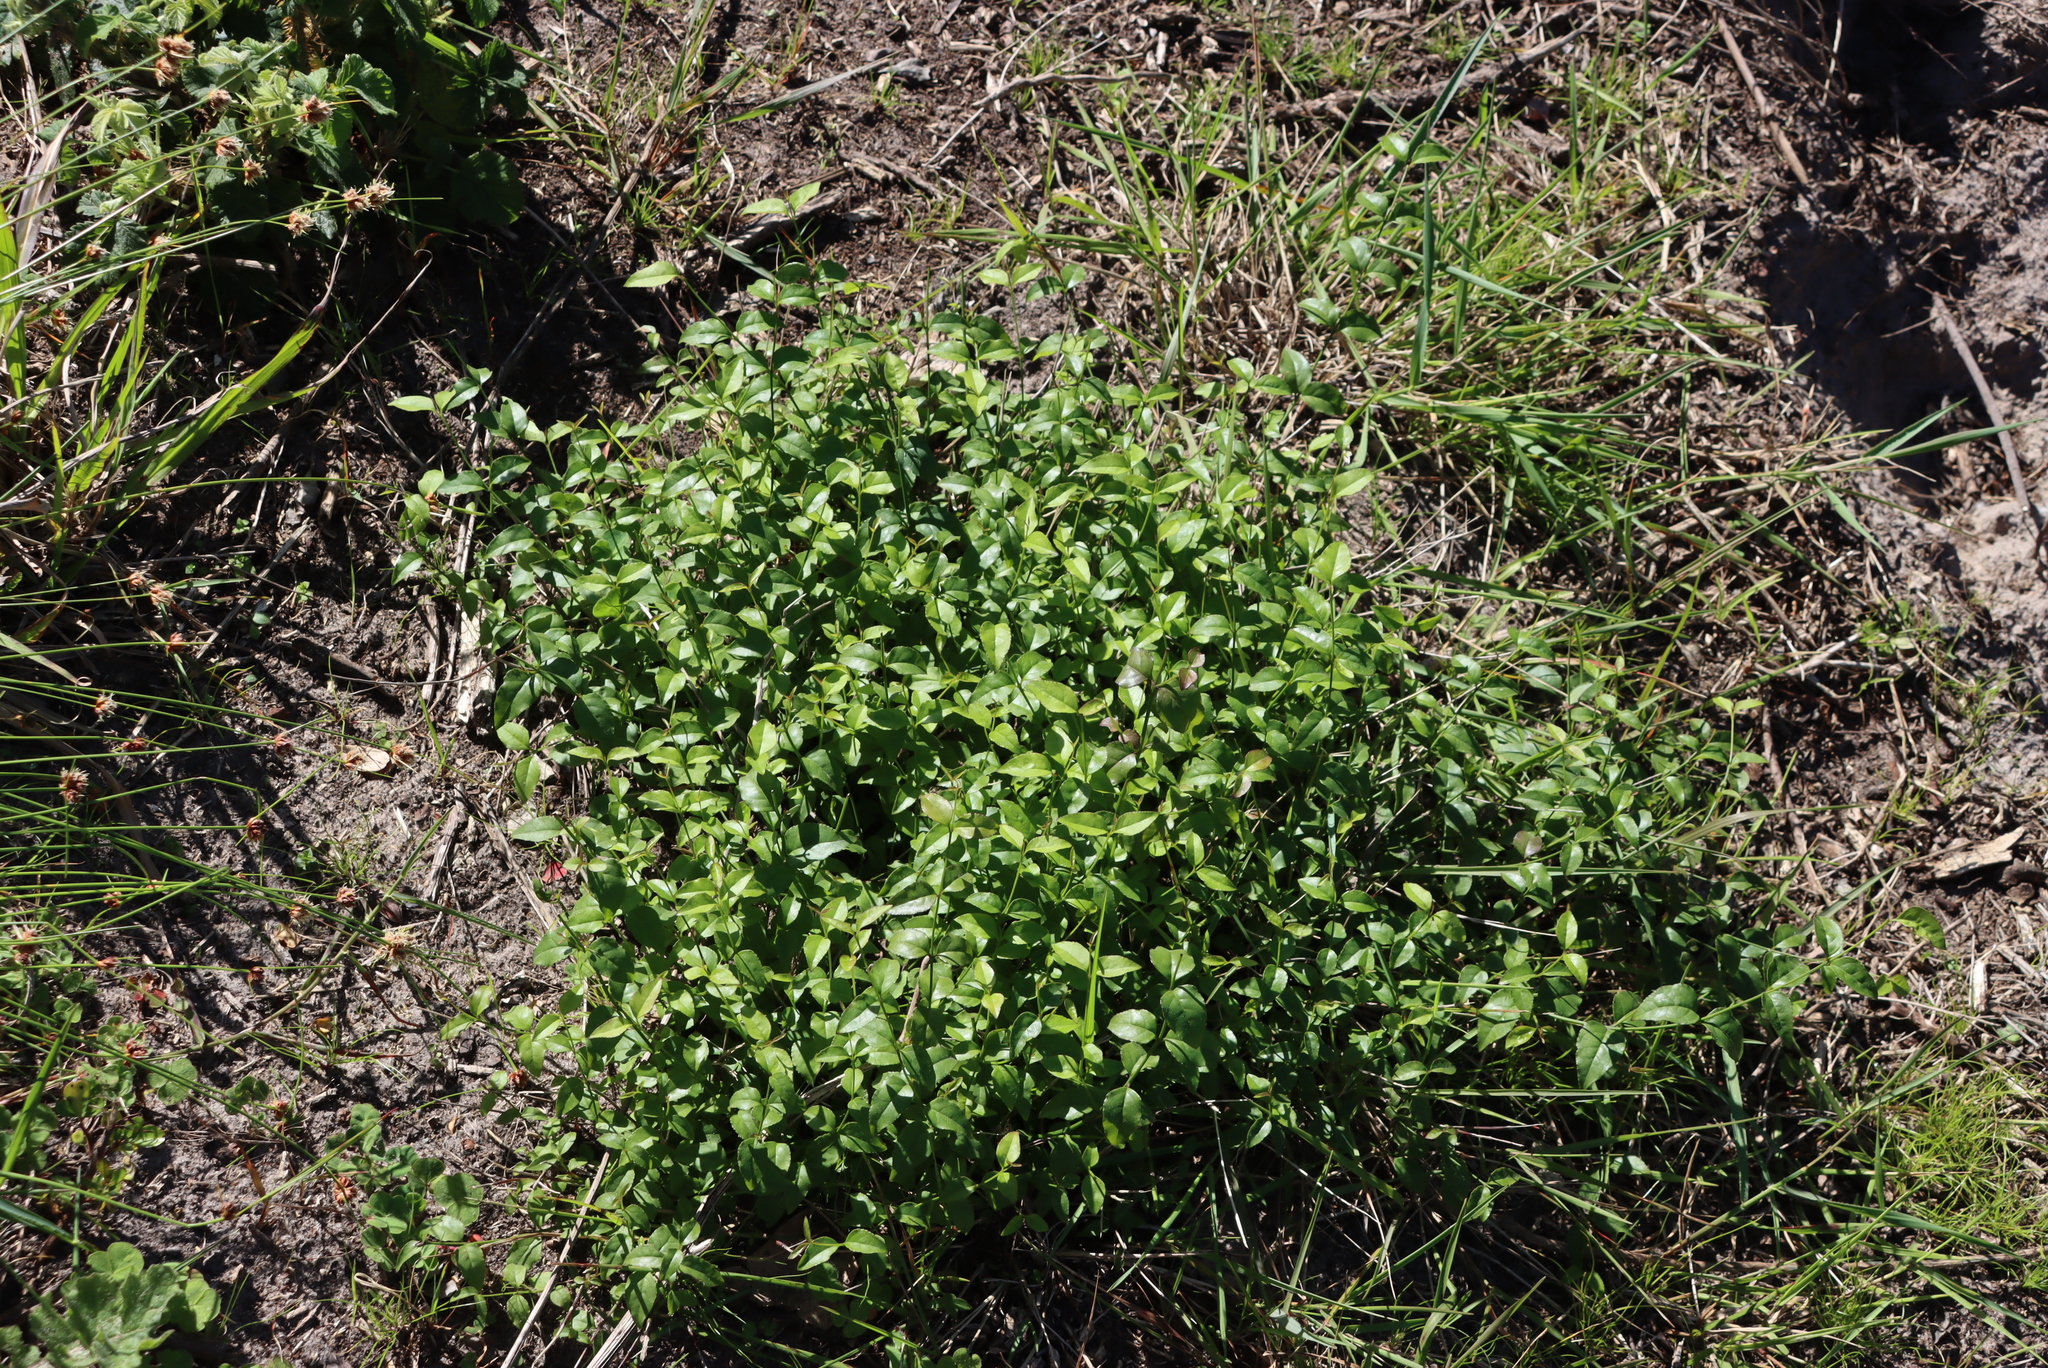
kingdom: Plantae
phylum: Tracheophyta
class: Magnoliopsida
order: Lamiales
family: Stilbaceae
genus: Halleria
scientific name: Halleria lucida
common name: Tree fuschia
